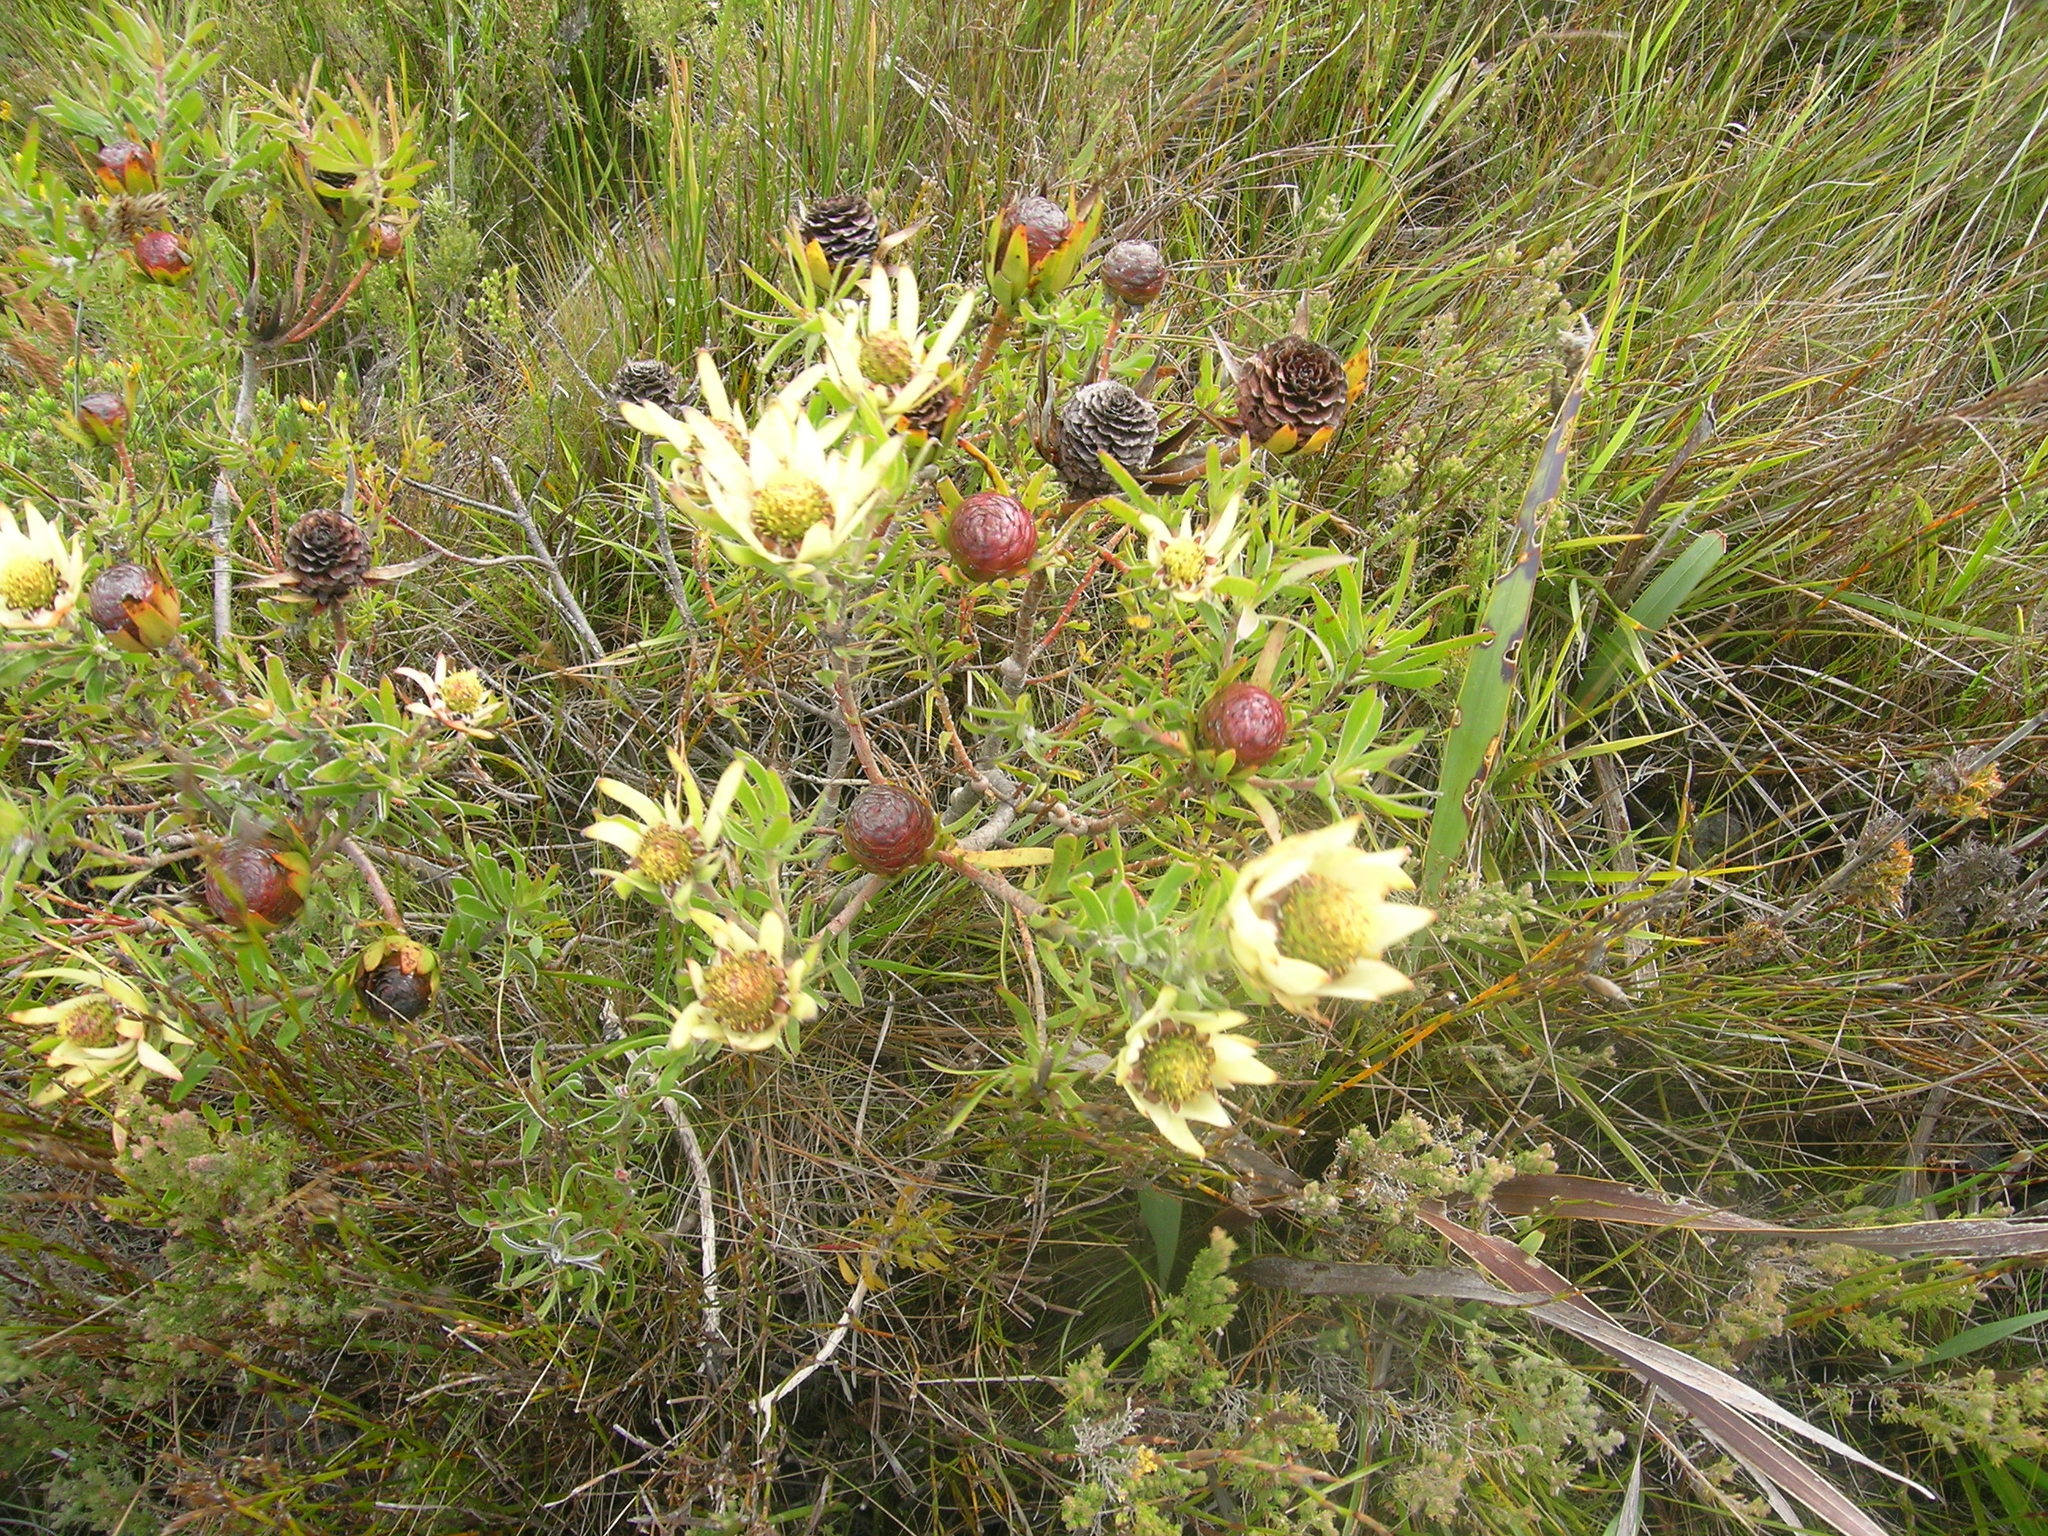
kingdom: Plantae
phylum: Tracheophyta
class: Magnoliopsida
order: Proteales
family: Proteaceae
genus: Leucadendron
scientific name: Leucadendron spissifolium
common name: Spear-leaf conebush
